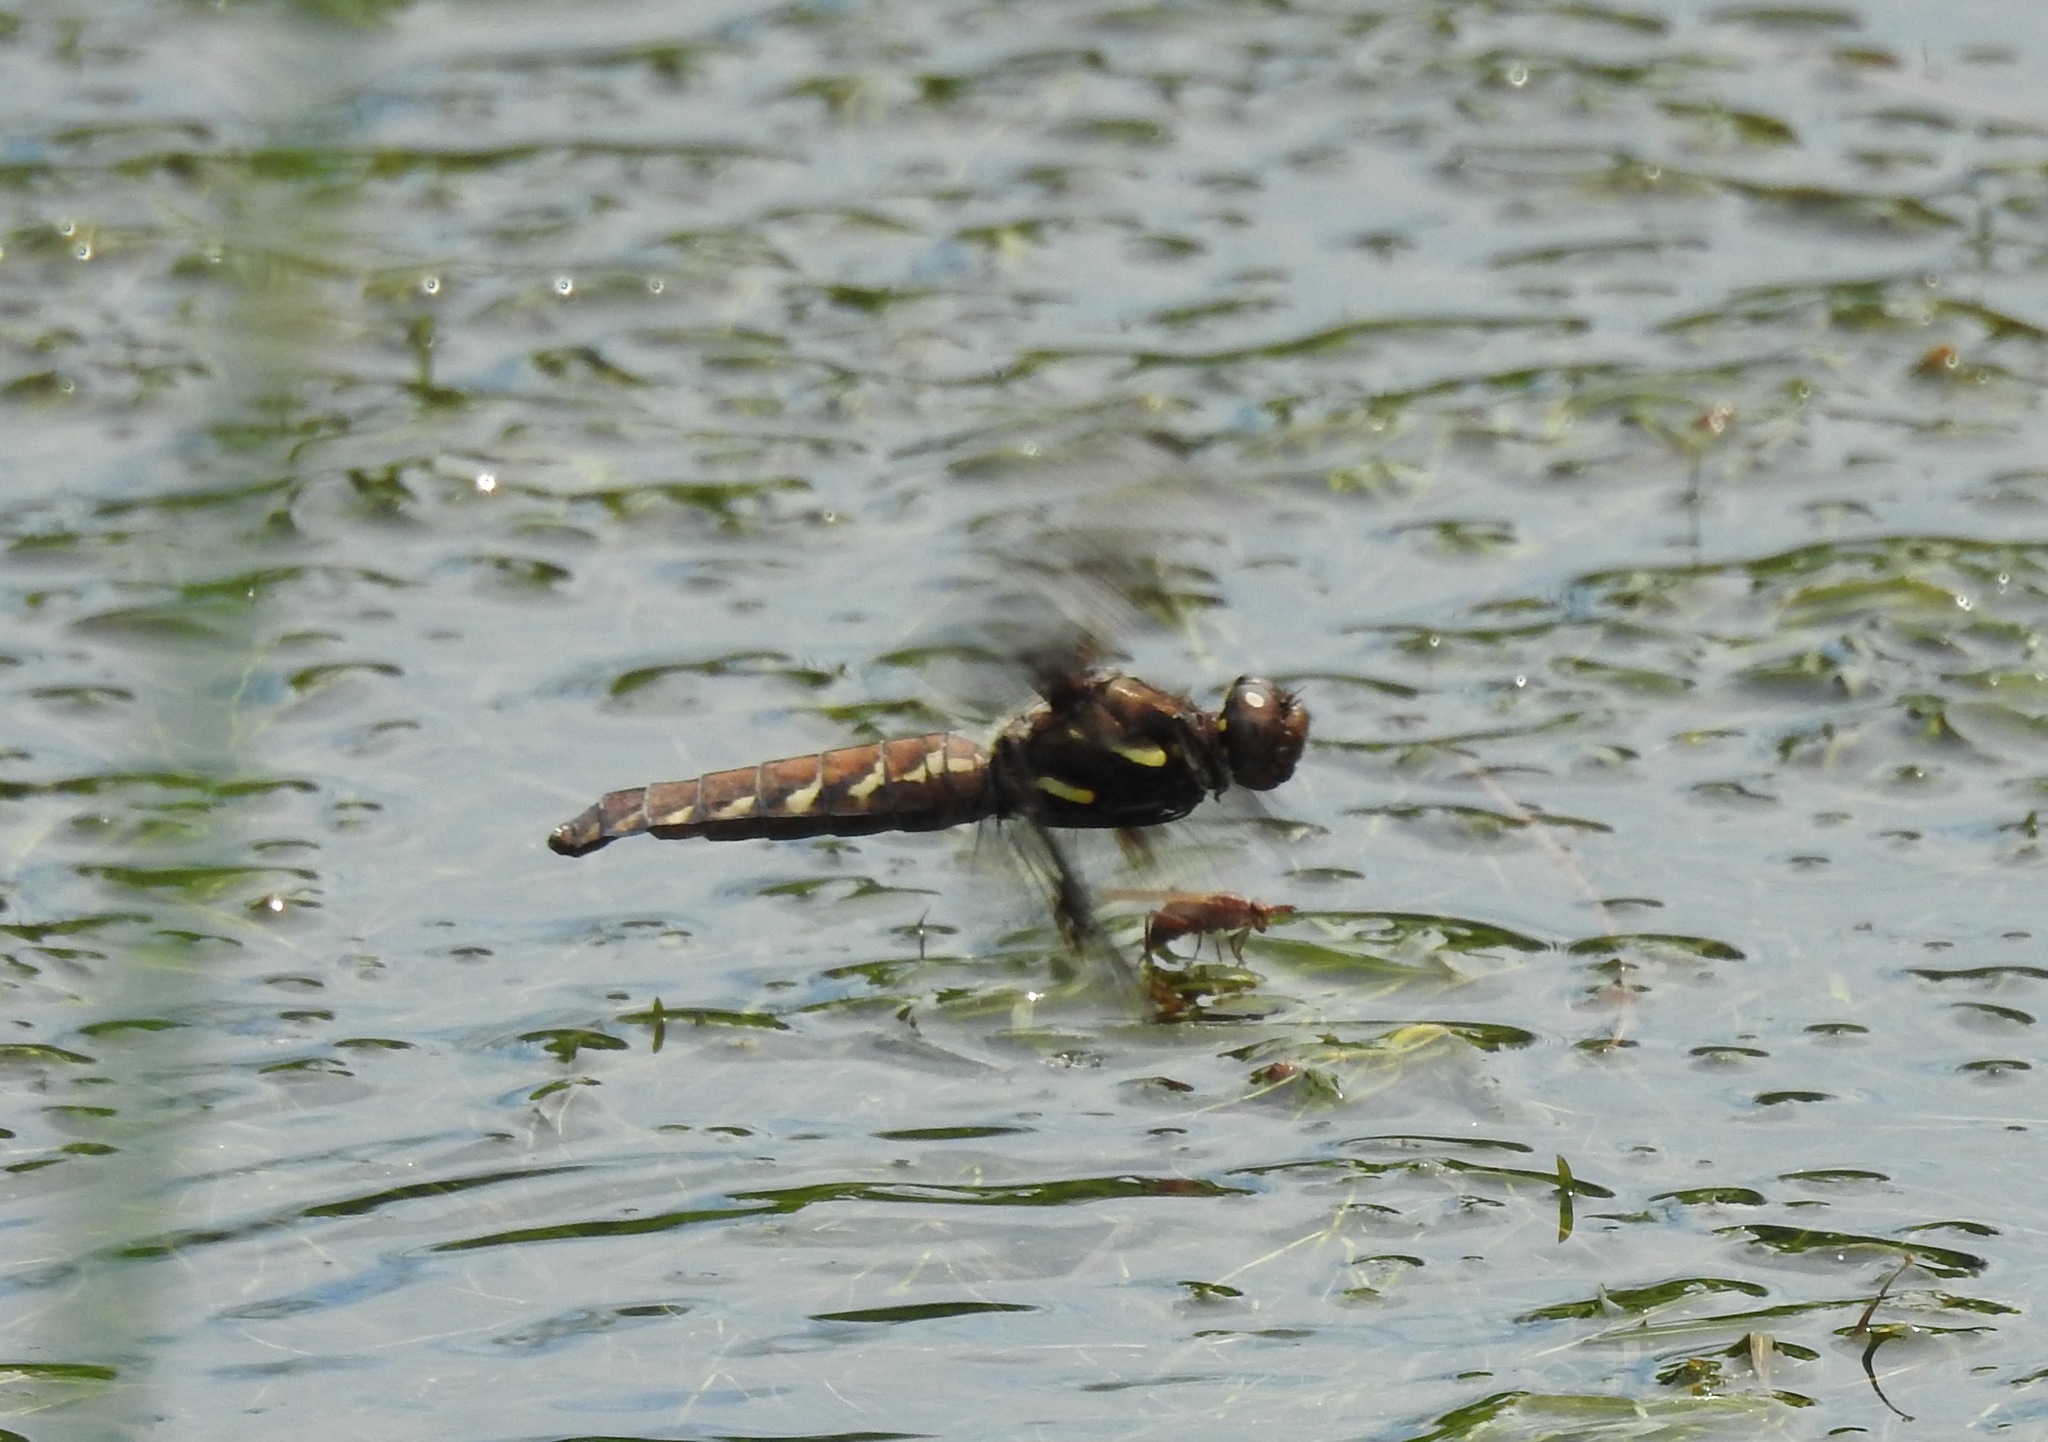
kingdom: Animalia
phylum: Arthropoda
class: Insecta
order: Odonata
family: Libellulidae
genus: Plathemis
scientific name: Plathemis lydia
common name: Common whitetail
